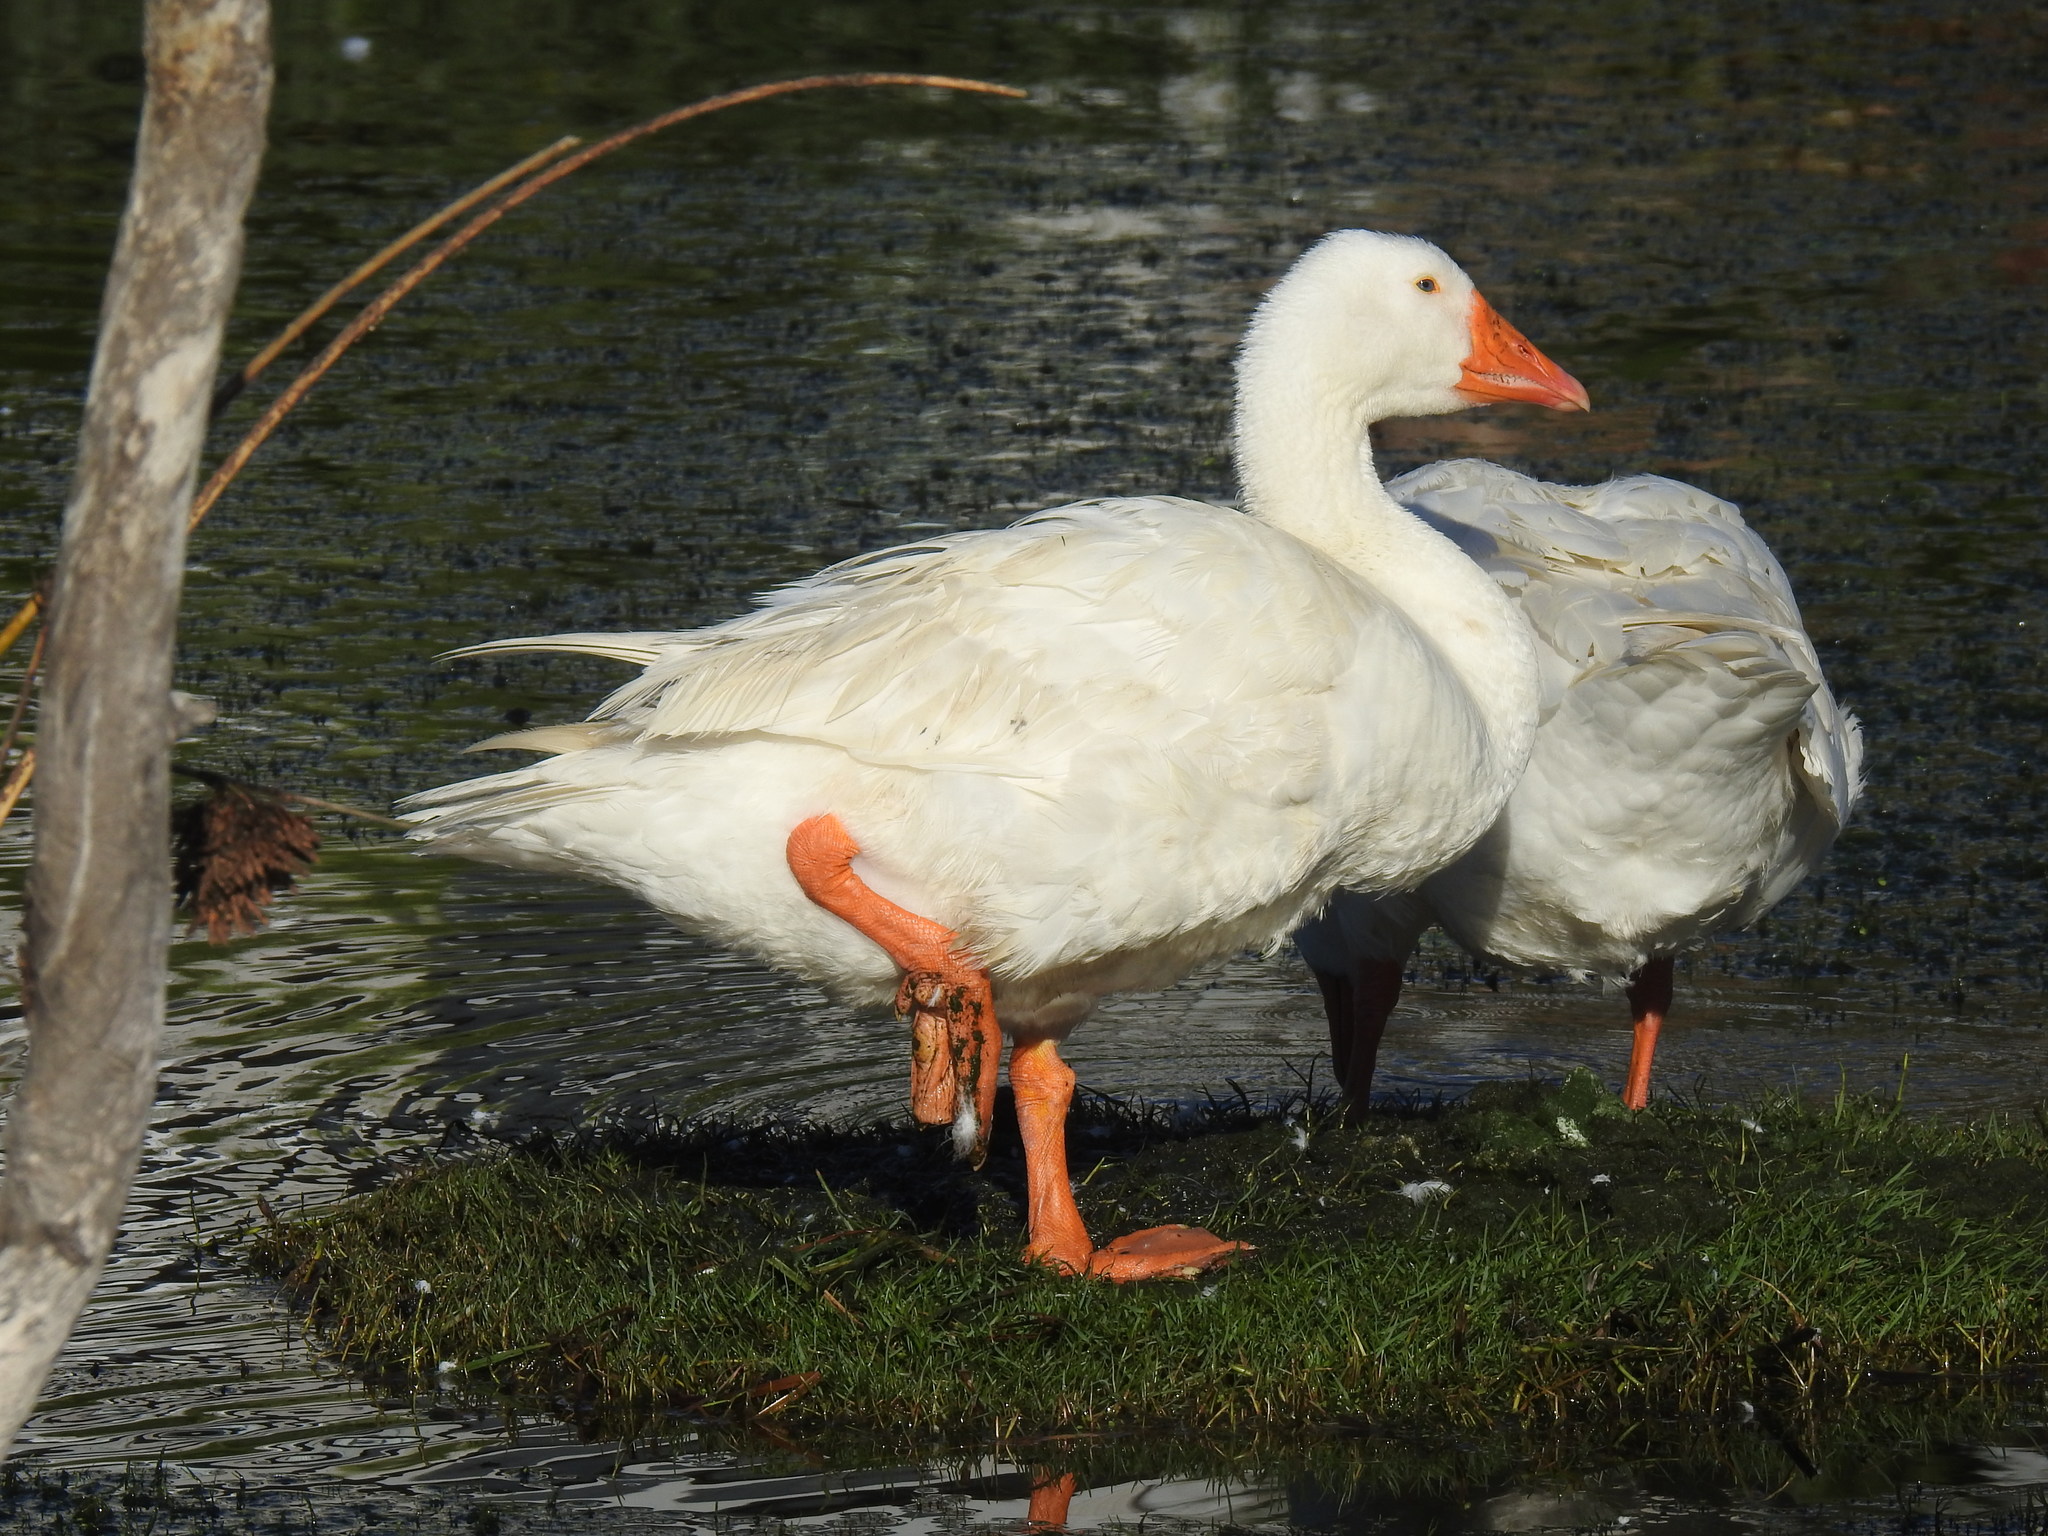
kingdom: Animalia
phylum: Chordata
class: Aves
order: Anseriformes
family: Anatidae
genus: Anser
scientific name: Anser anser
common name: Greylag goose
